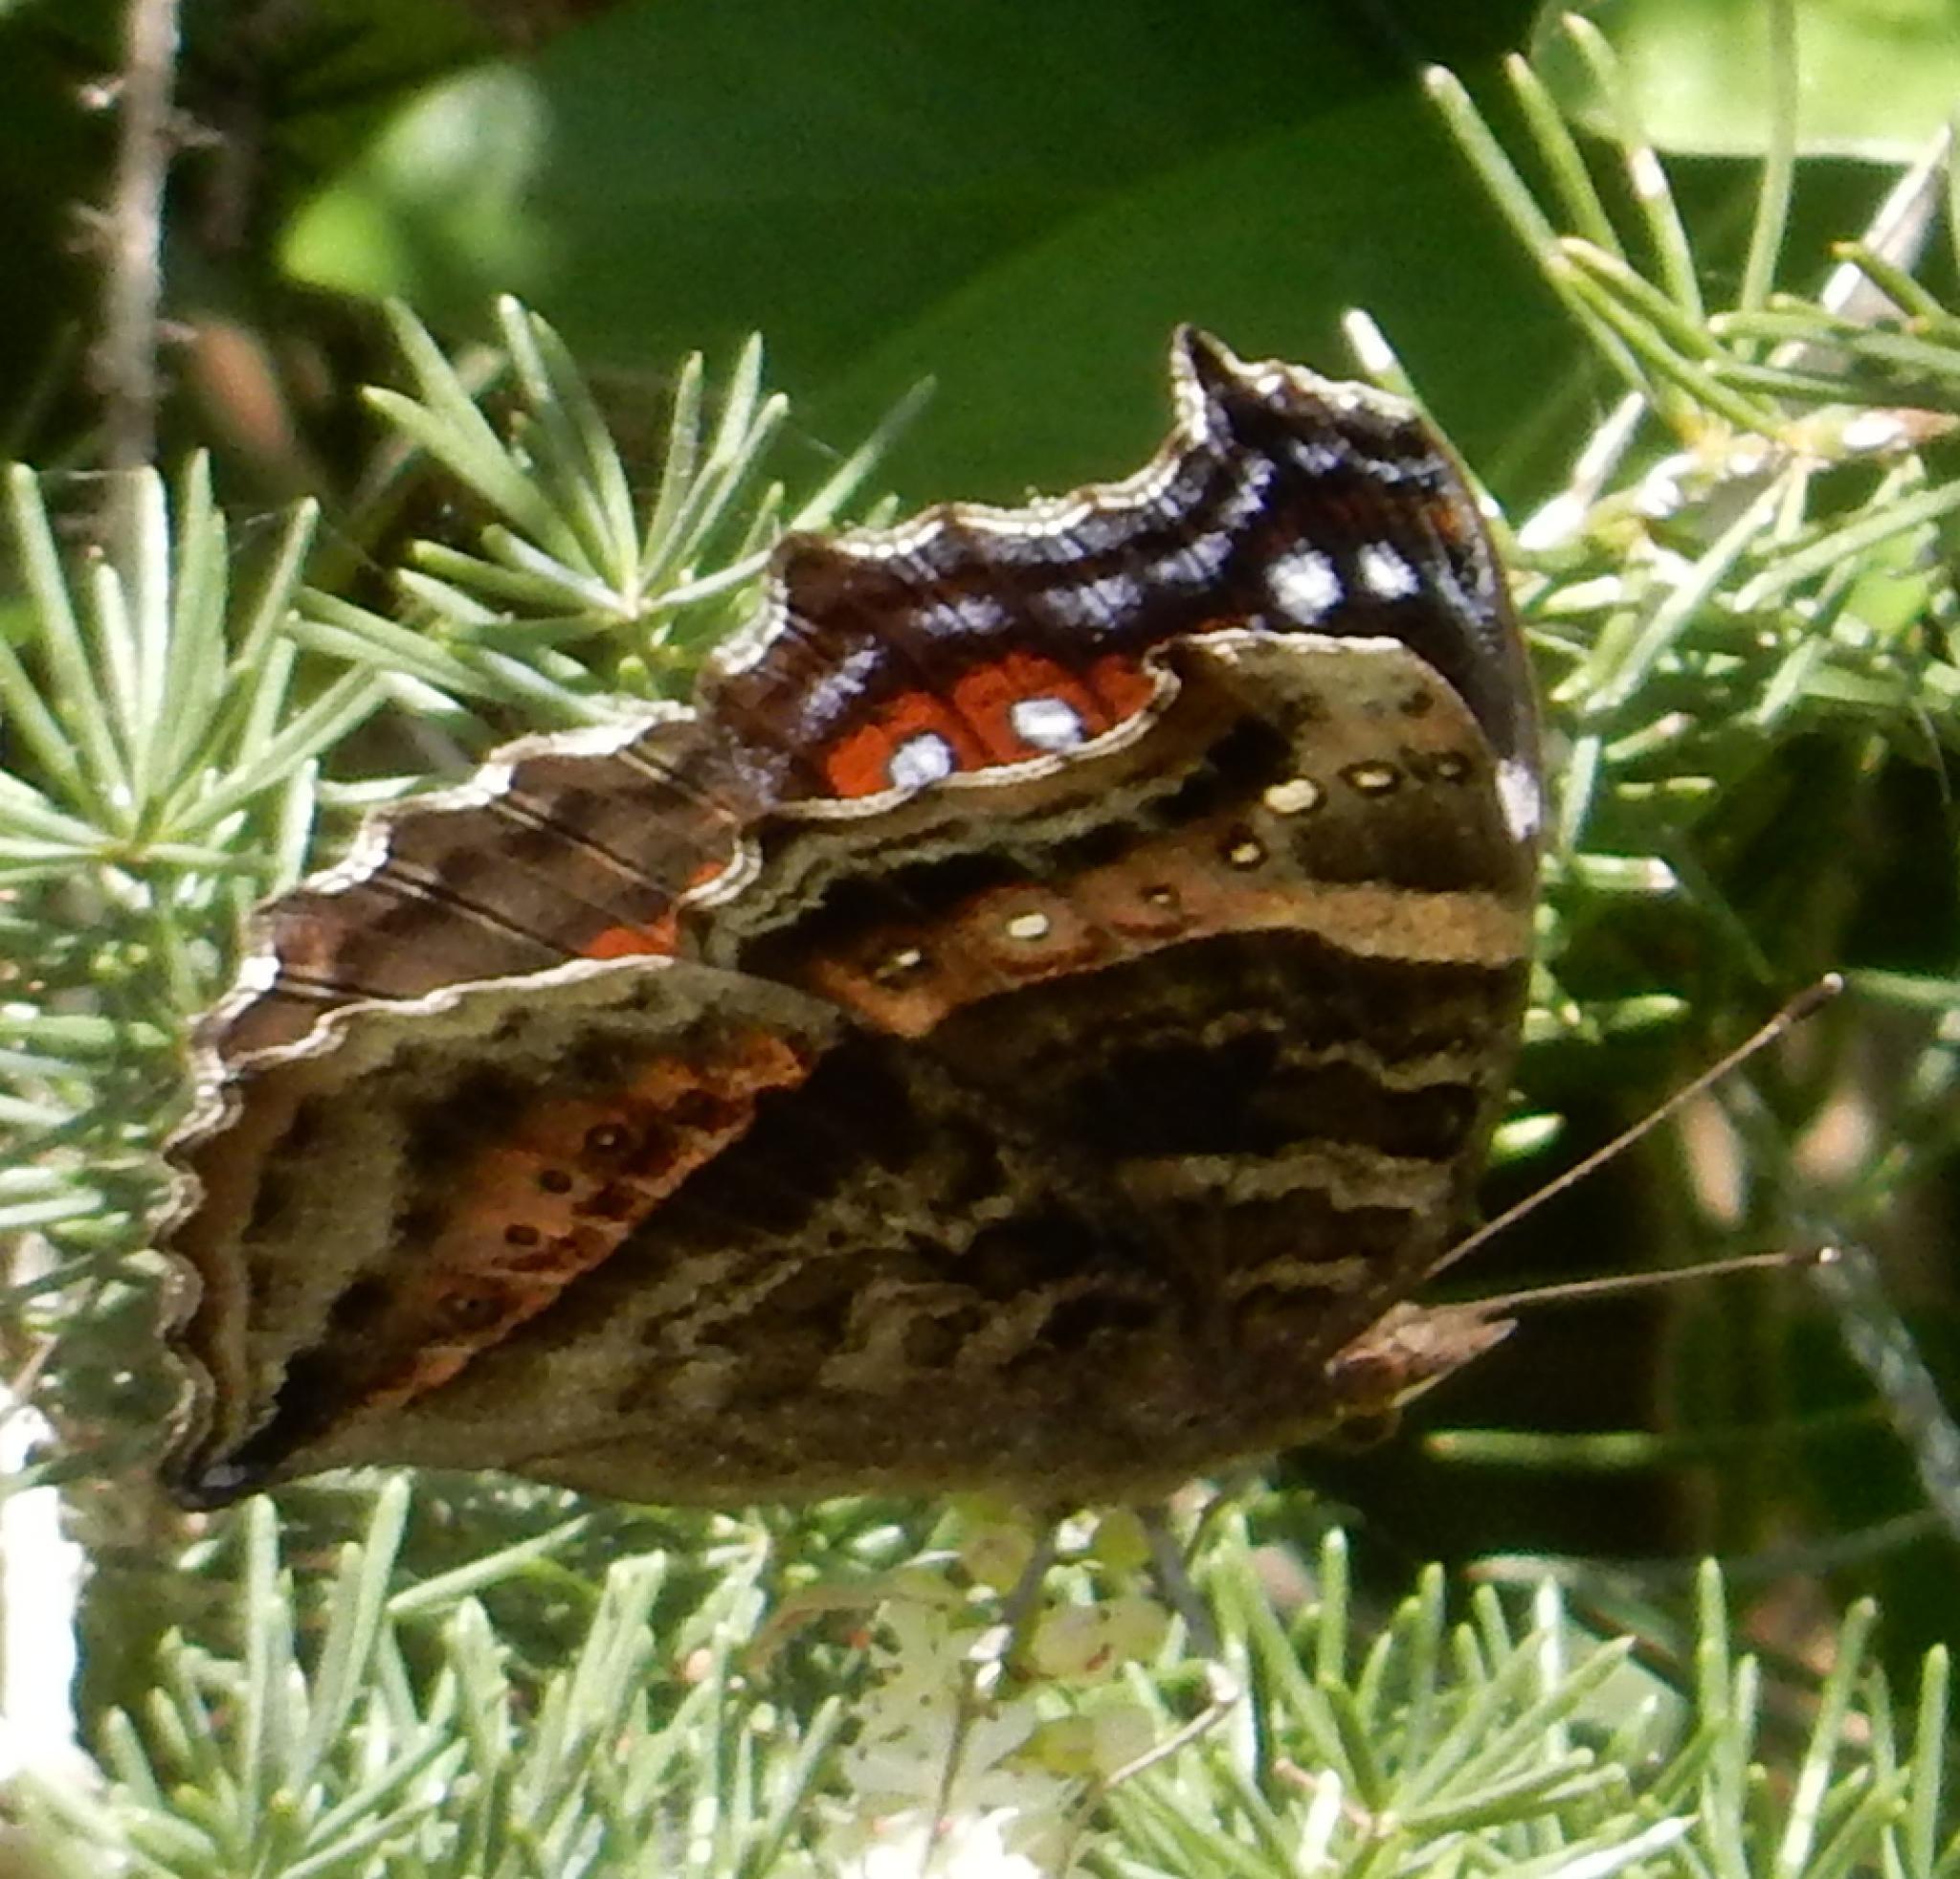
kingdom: Animalia
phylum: Arthropoda
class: Insecta
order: Lepidoptera
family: Nymphalidae
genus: Junonia
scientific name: Junonia archesia
